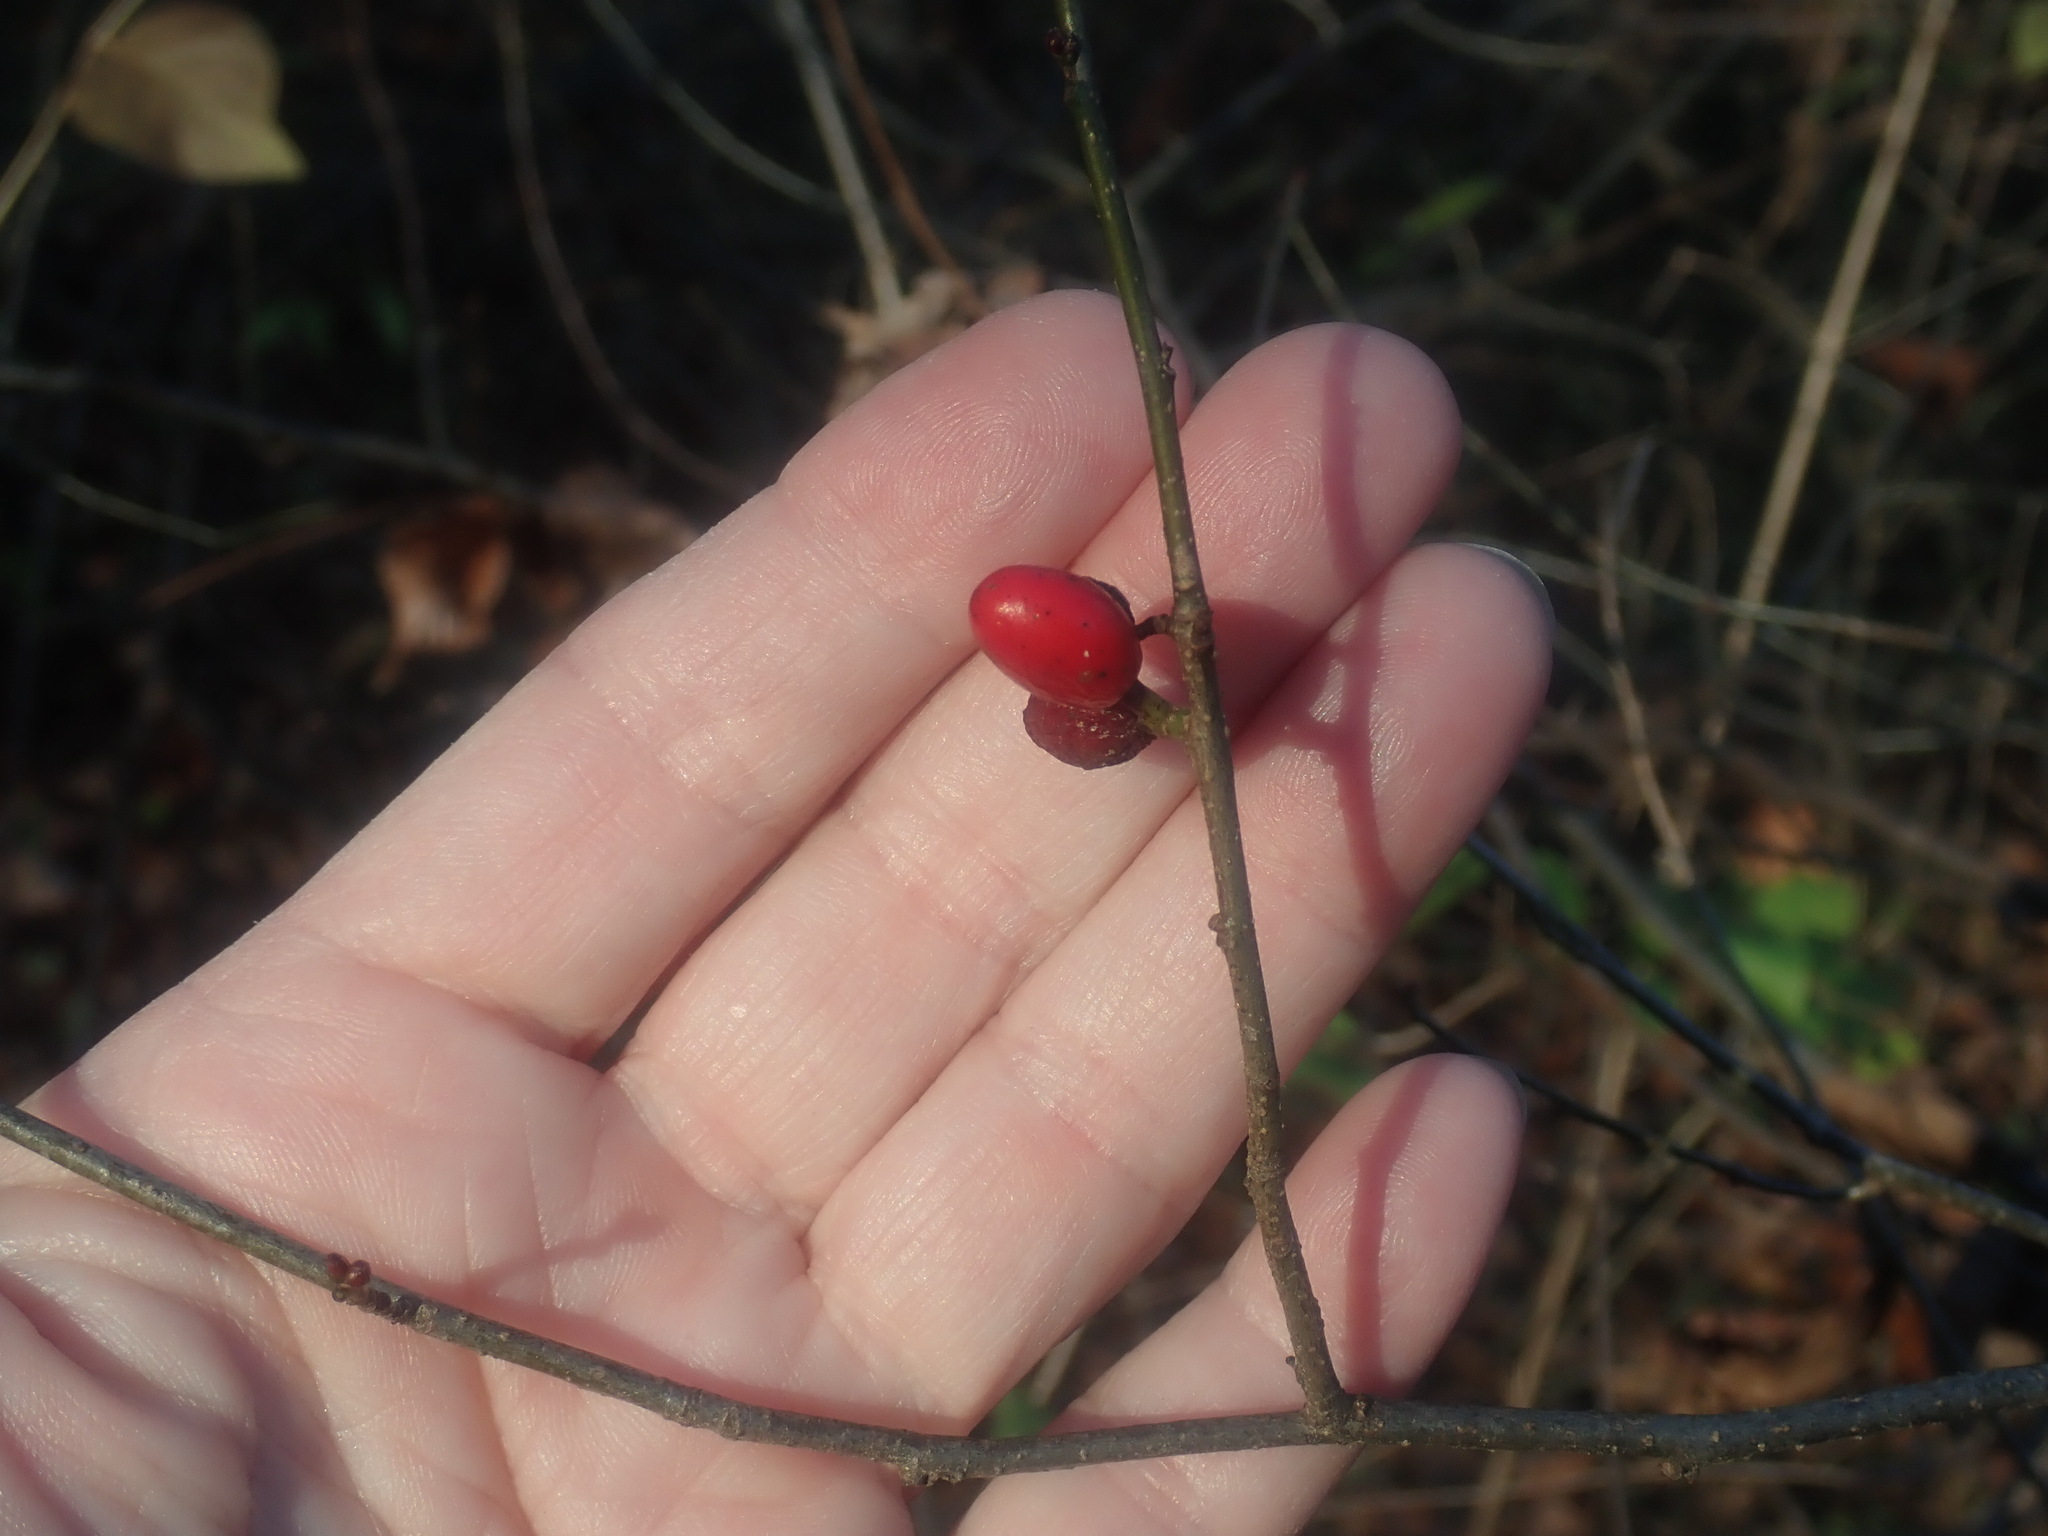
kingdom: Plantae
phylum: Tracheophyta
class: Magnoliopsida
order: Laurales
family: Lauraceae
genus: Lindera
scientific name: Lindera benzoin
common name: Spicebush
